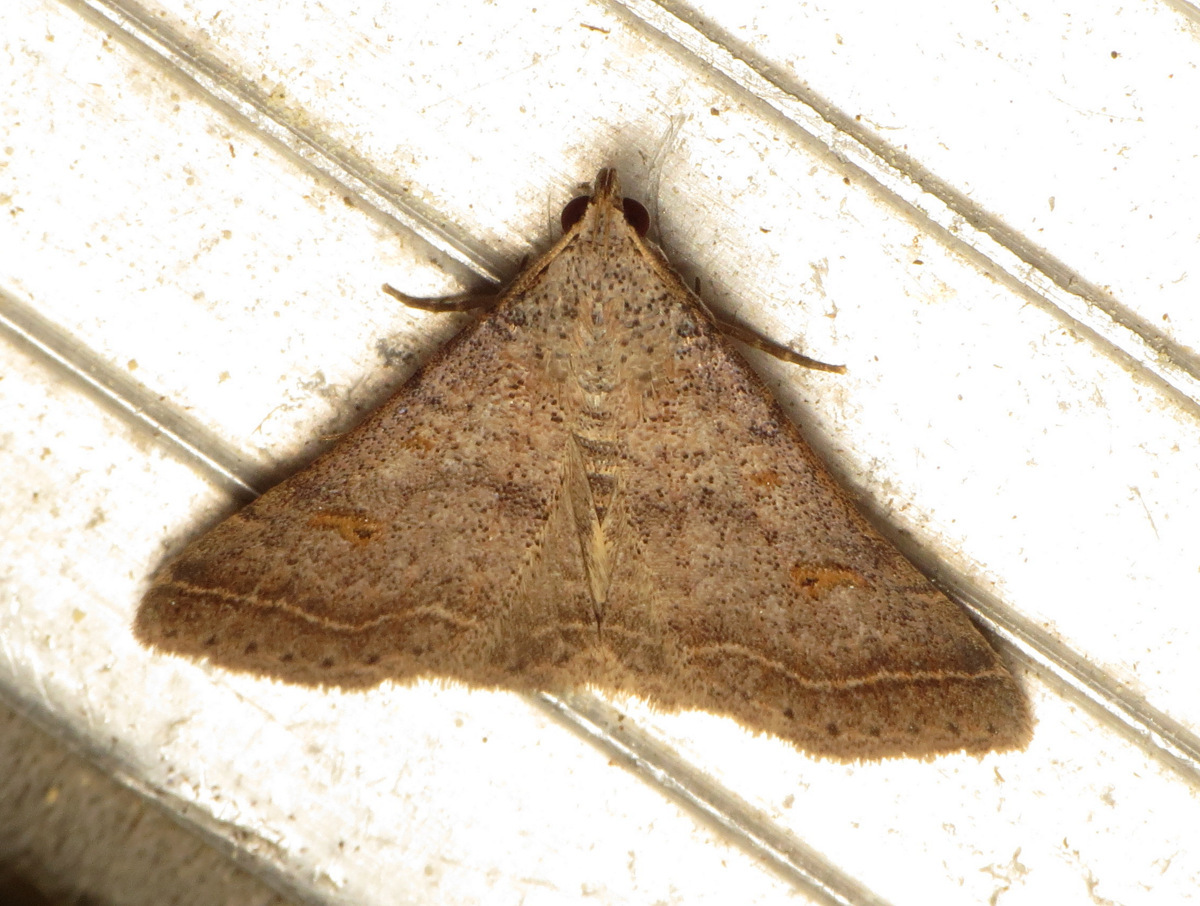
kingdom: Animalia
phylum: Arthropoda
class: Insecta
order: Lepidoptera
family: Erebidae
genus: Bleptina
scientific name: Bleptina caradrinalis
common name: Bent-winged owlet
